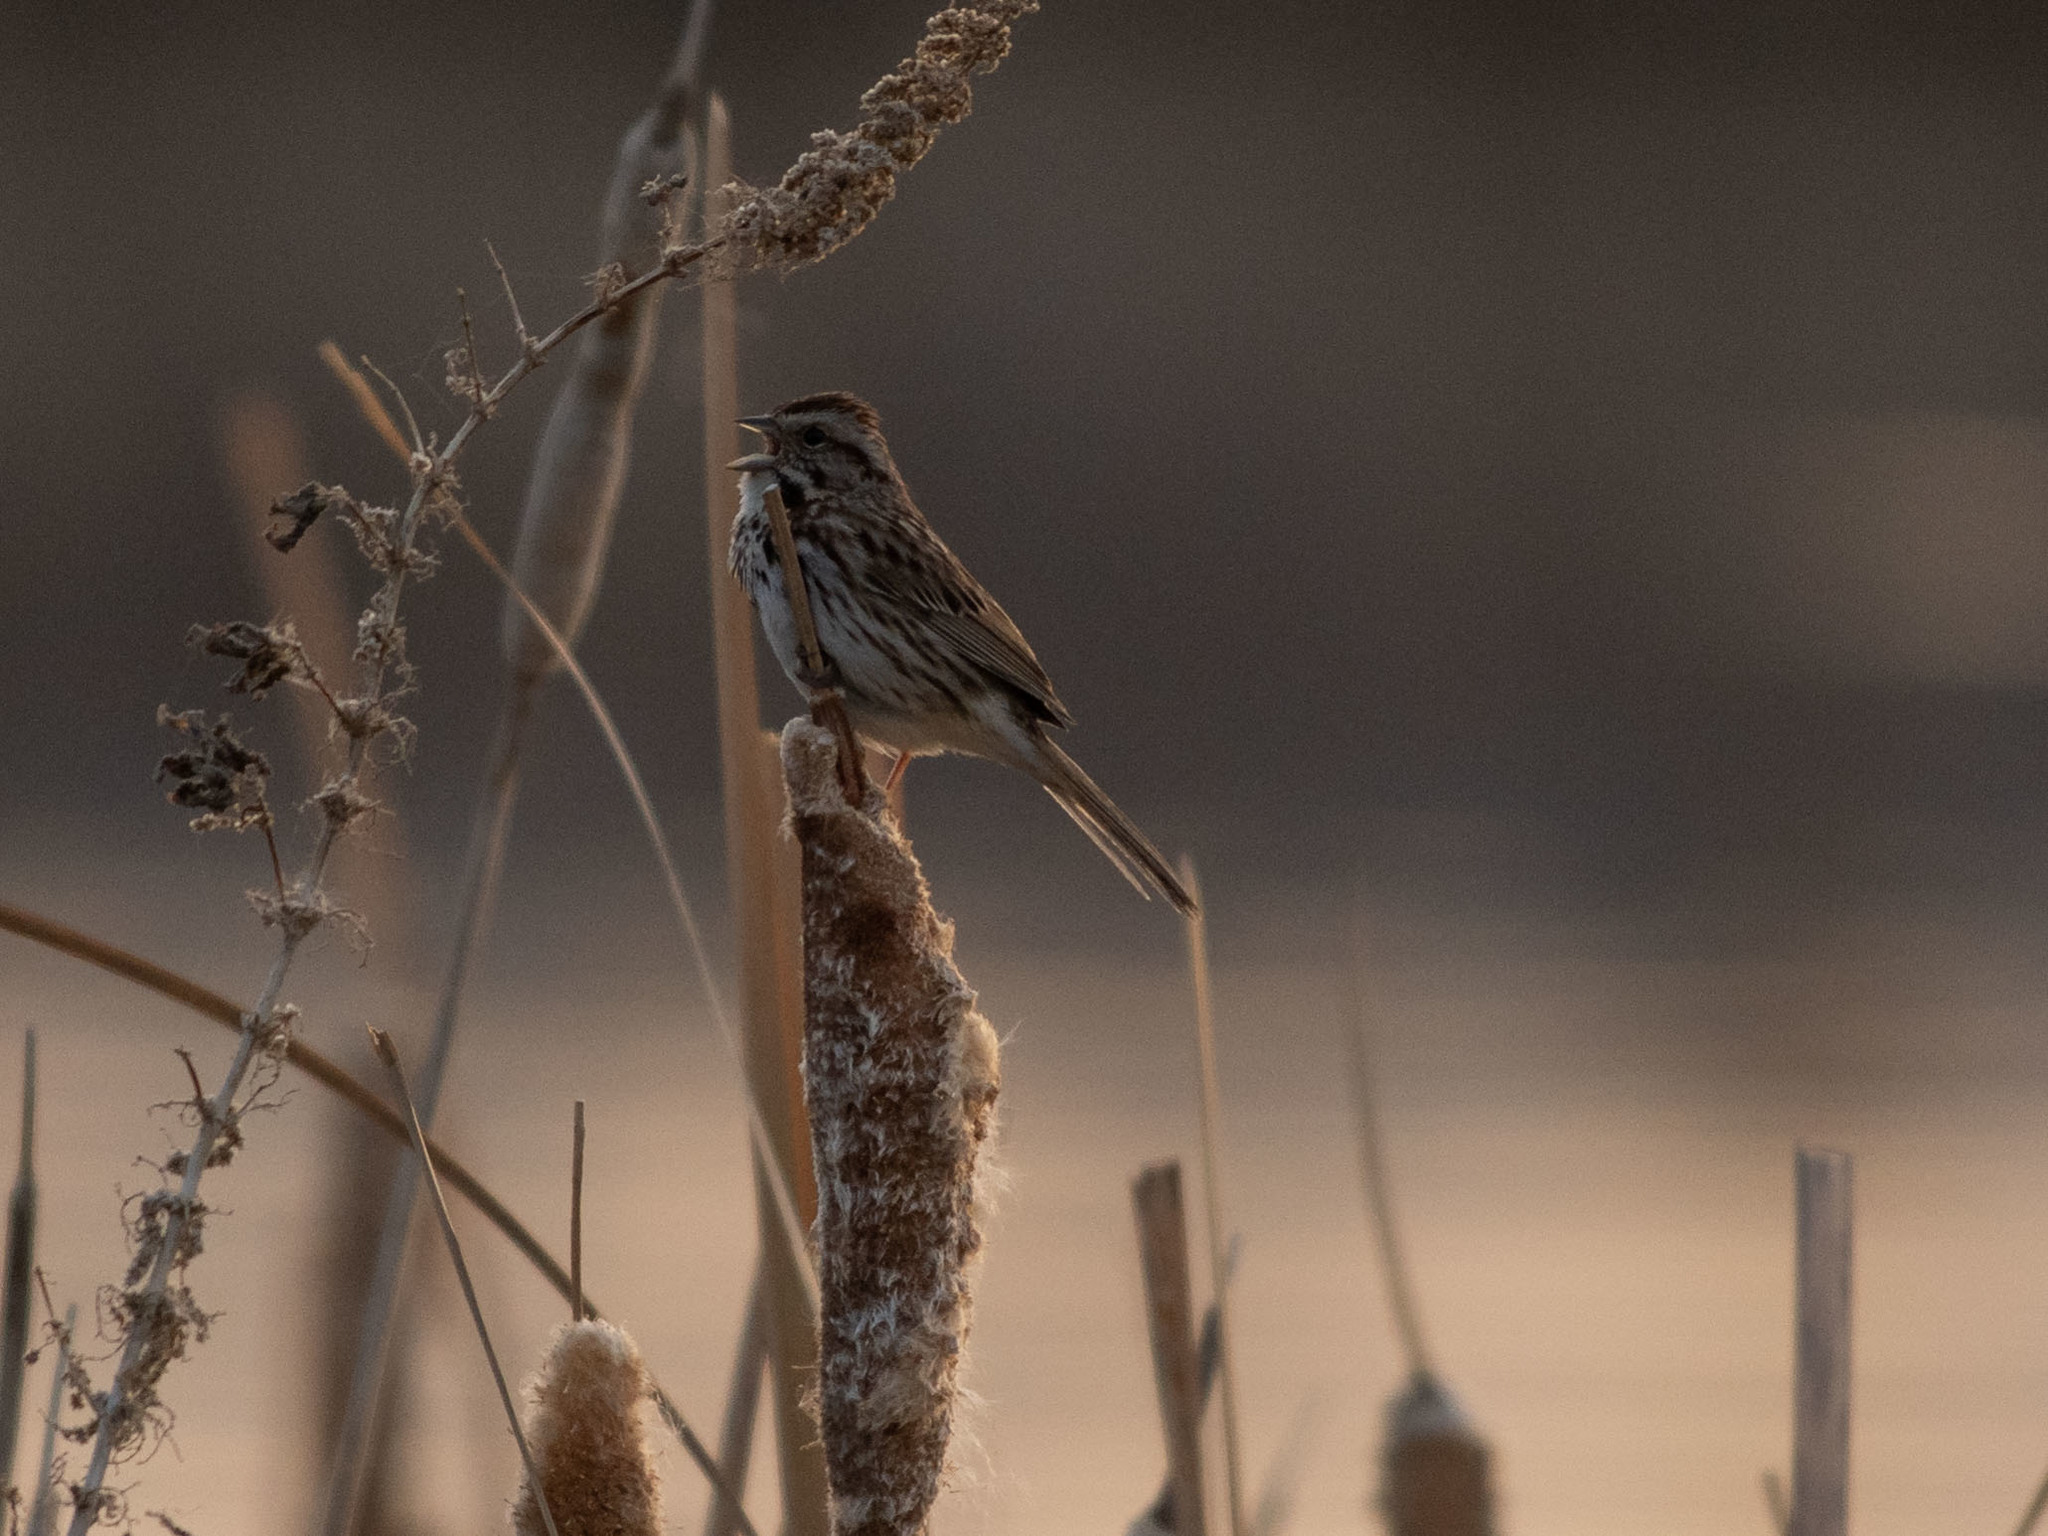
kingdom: Animalia
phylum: Chordata
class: Aves
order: Passeriformes
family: Passerellidae
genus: Melospiza
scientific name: Melospiza melodia
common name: Song sparrow
